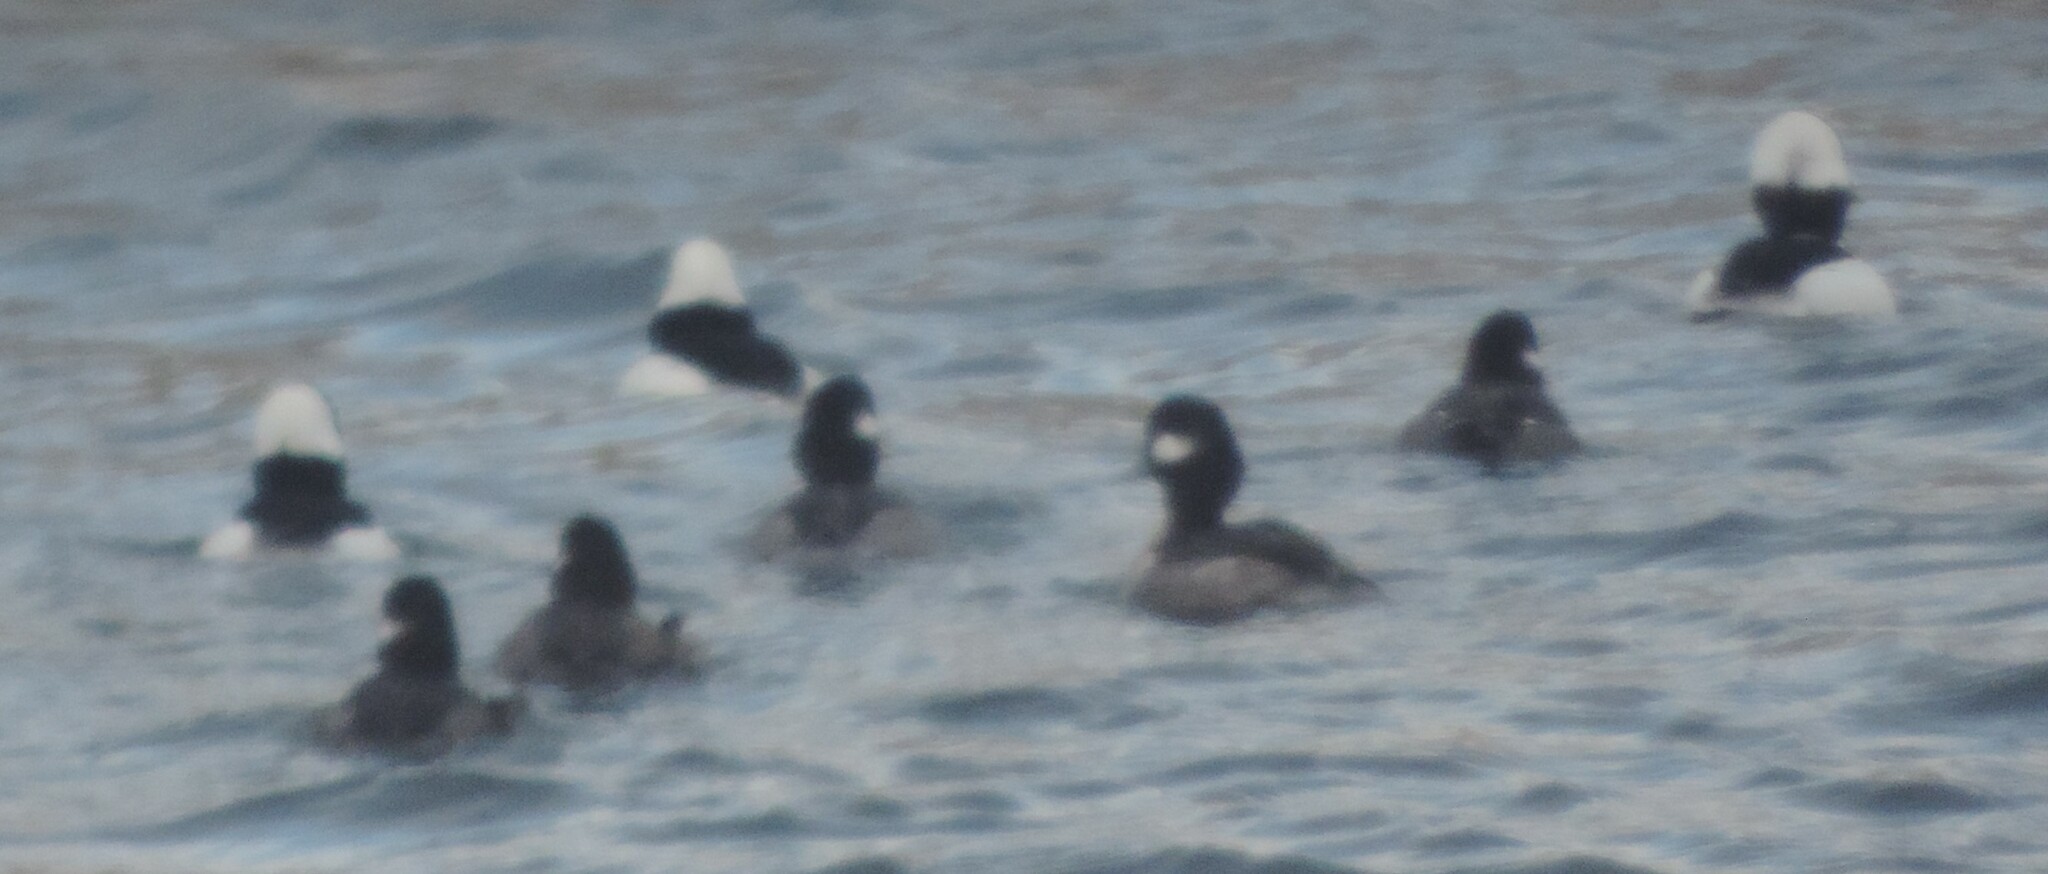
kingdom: Animalia
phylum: Chordata
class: Aves
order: Anseriformes
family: Anatidae
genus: Bucephala
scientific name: Bucephala albeola
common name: Bufflehead
